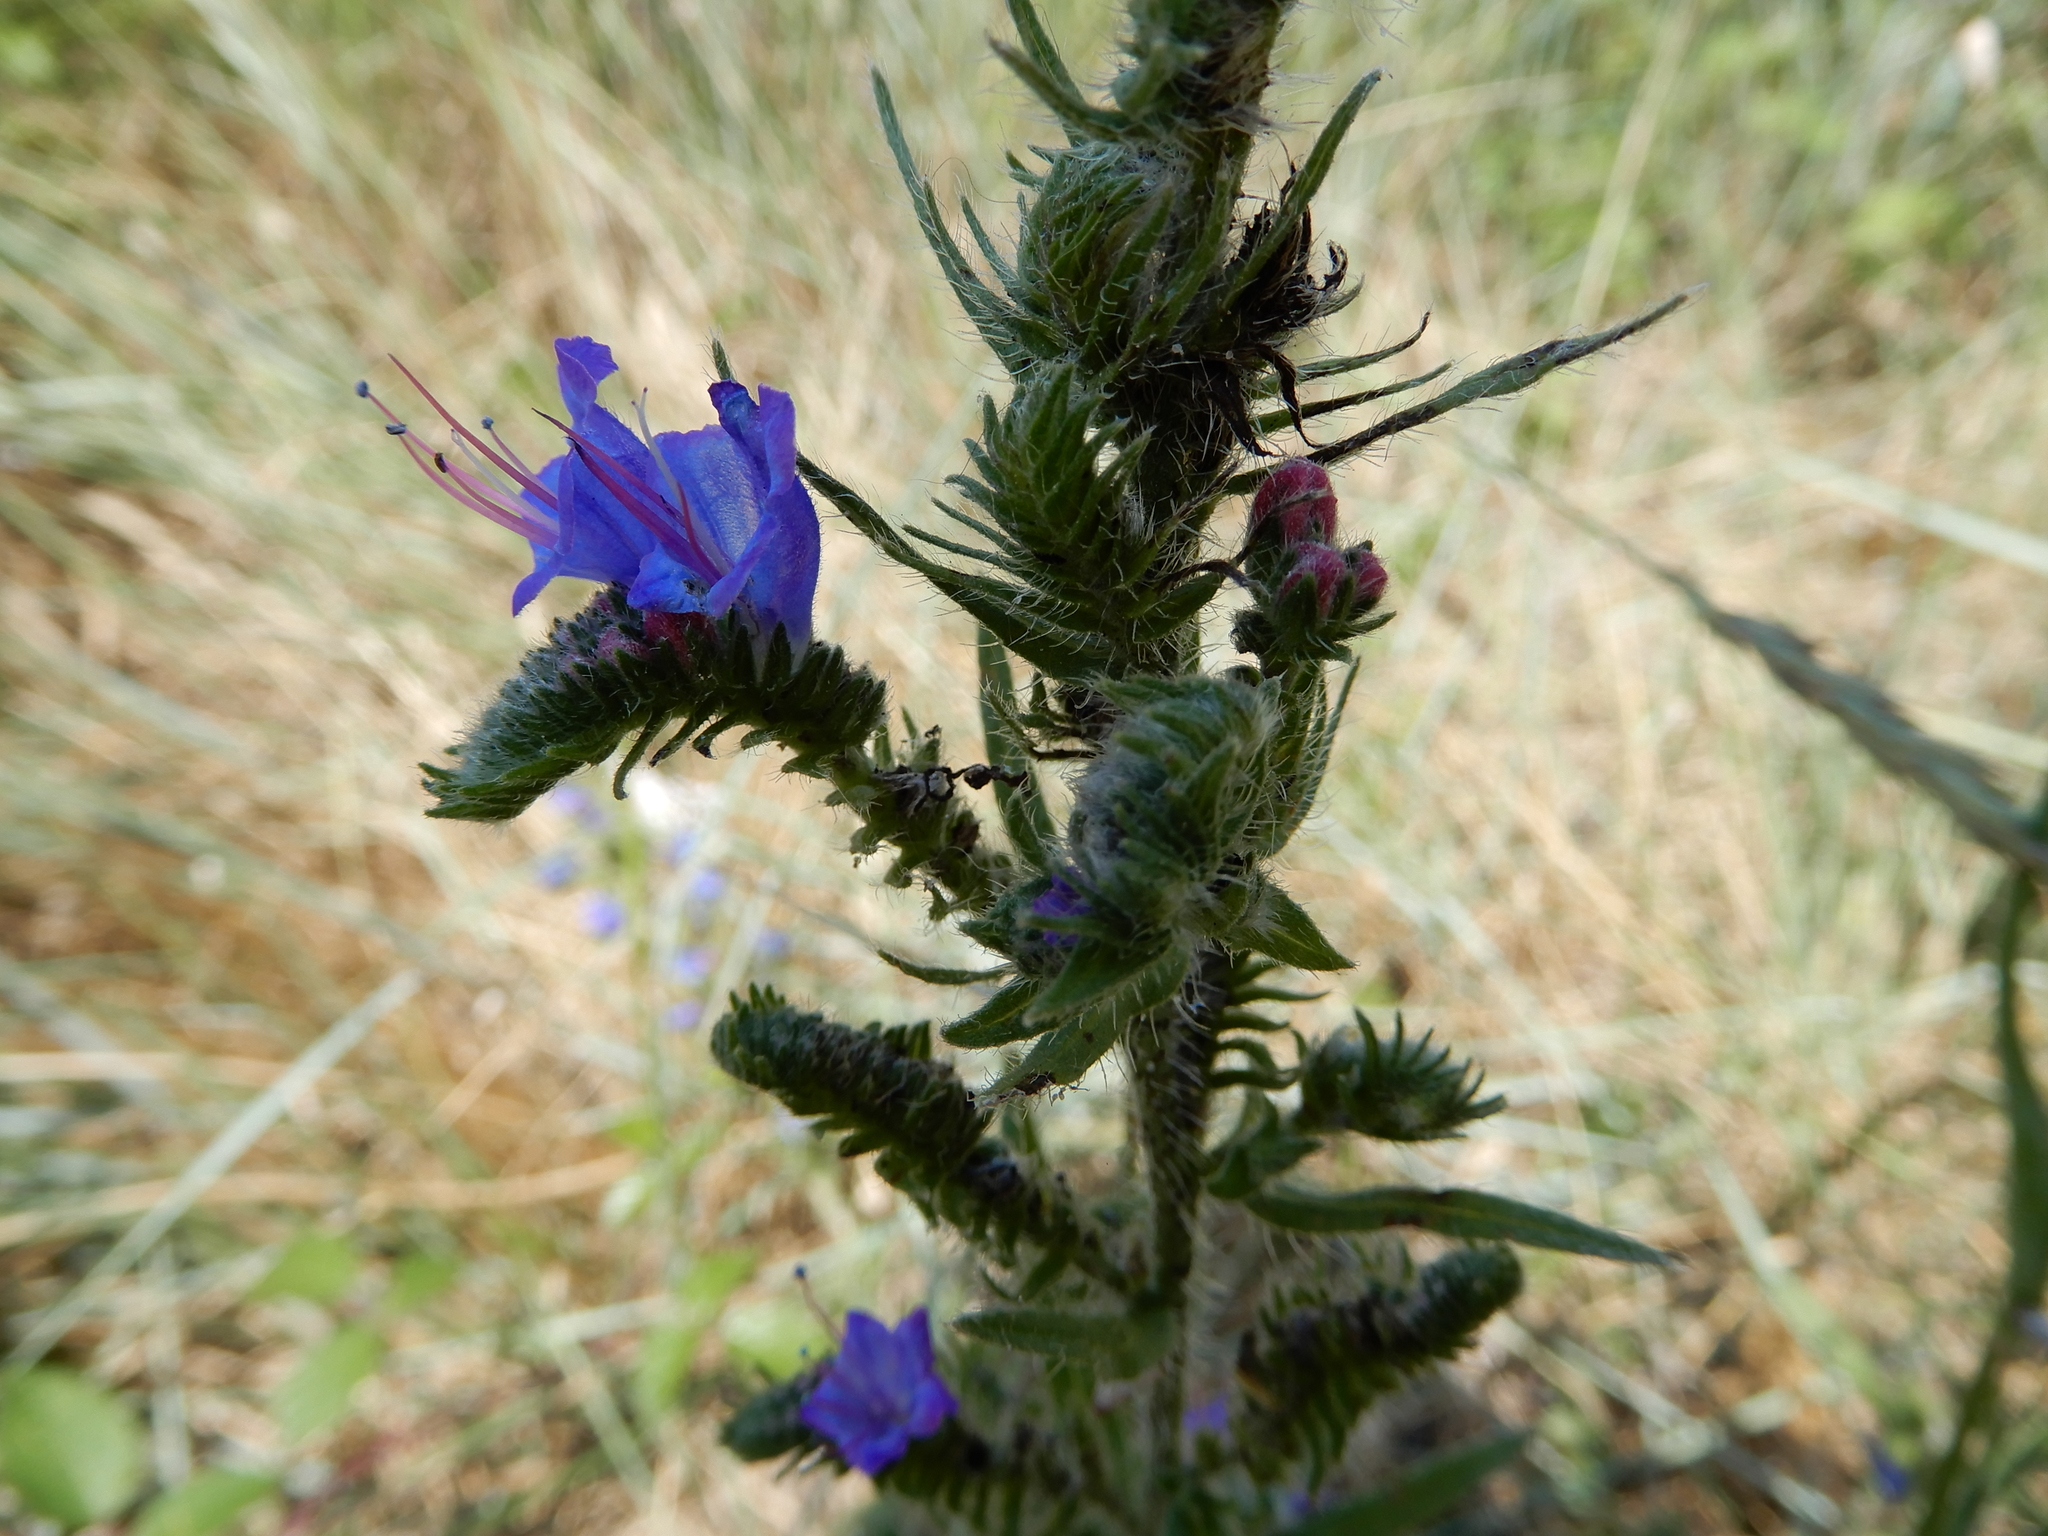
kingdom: Plantae
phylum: Tracheophyta
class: Magnoliopsida
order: Boraginales
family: Boraginaceae
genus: Echium
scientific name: Echium vulgare
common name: Common viper's bugloss
